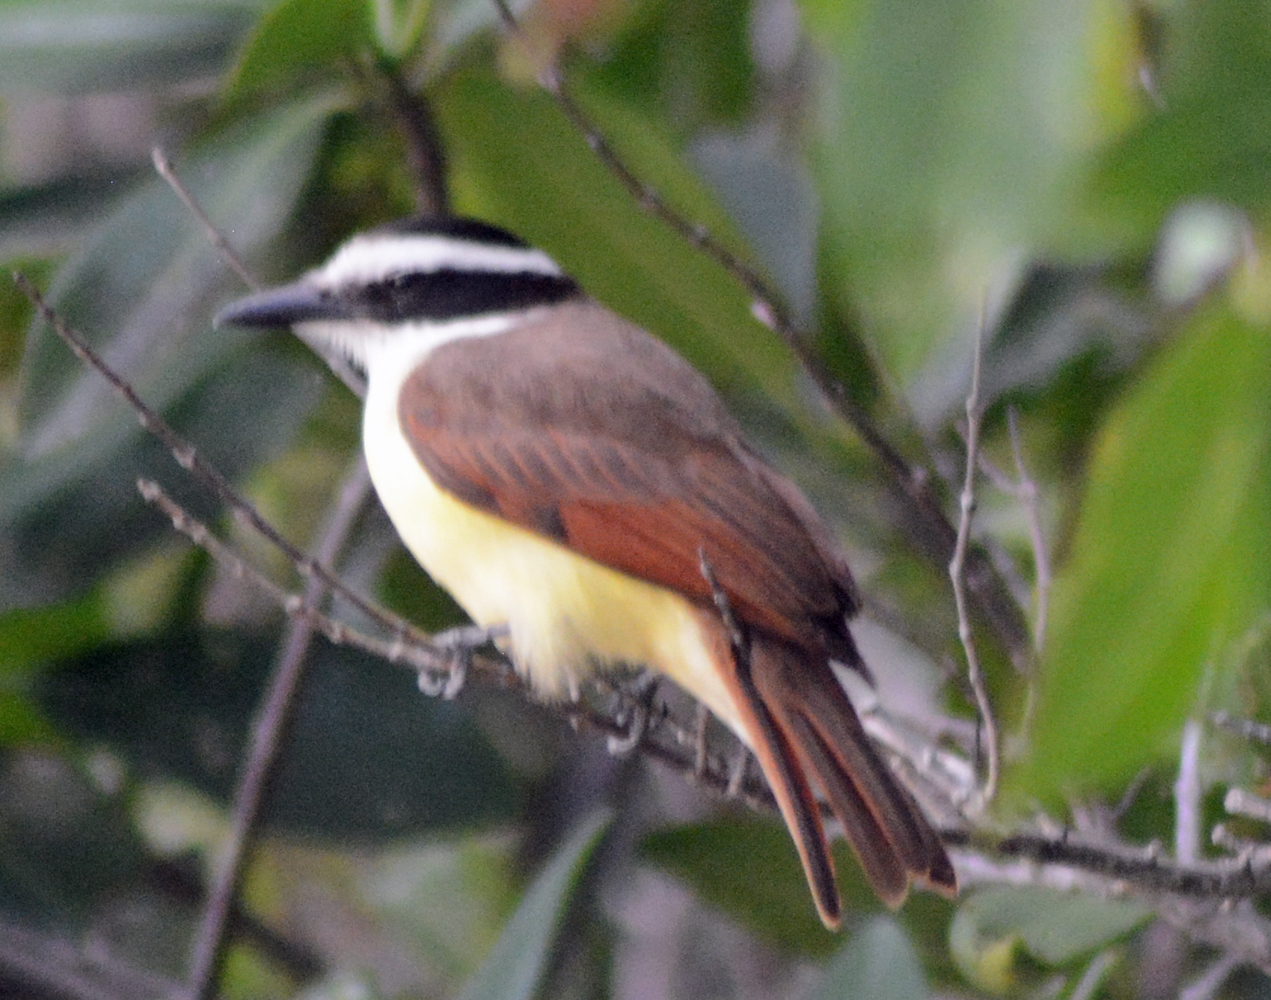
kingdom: Animalia
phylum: Chordata
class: Aves
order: Passeriformes
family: Tyrannidae
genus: Pitangus
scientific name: Pitangus sulphuratus
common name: Great kiskadee
